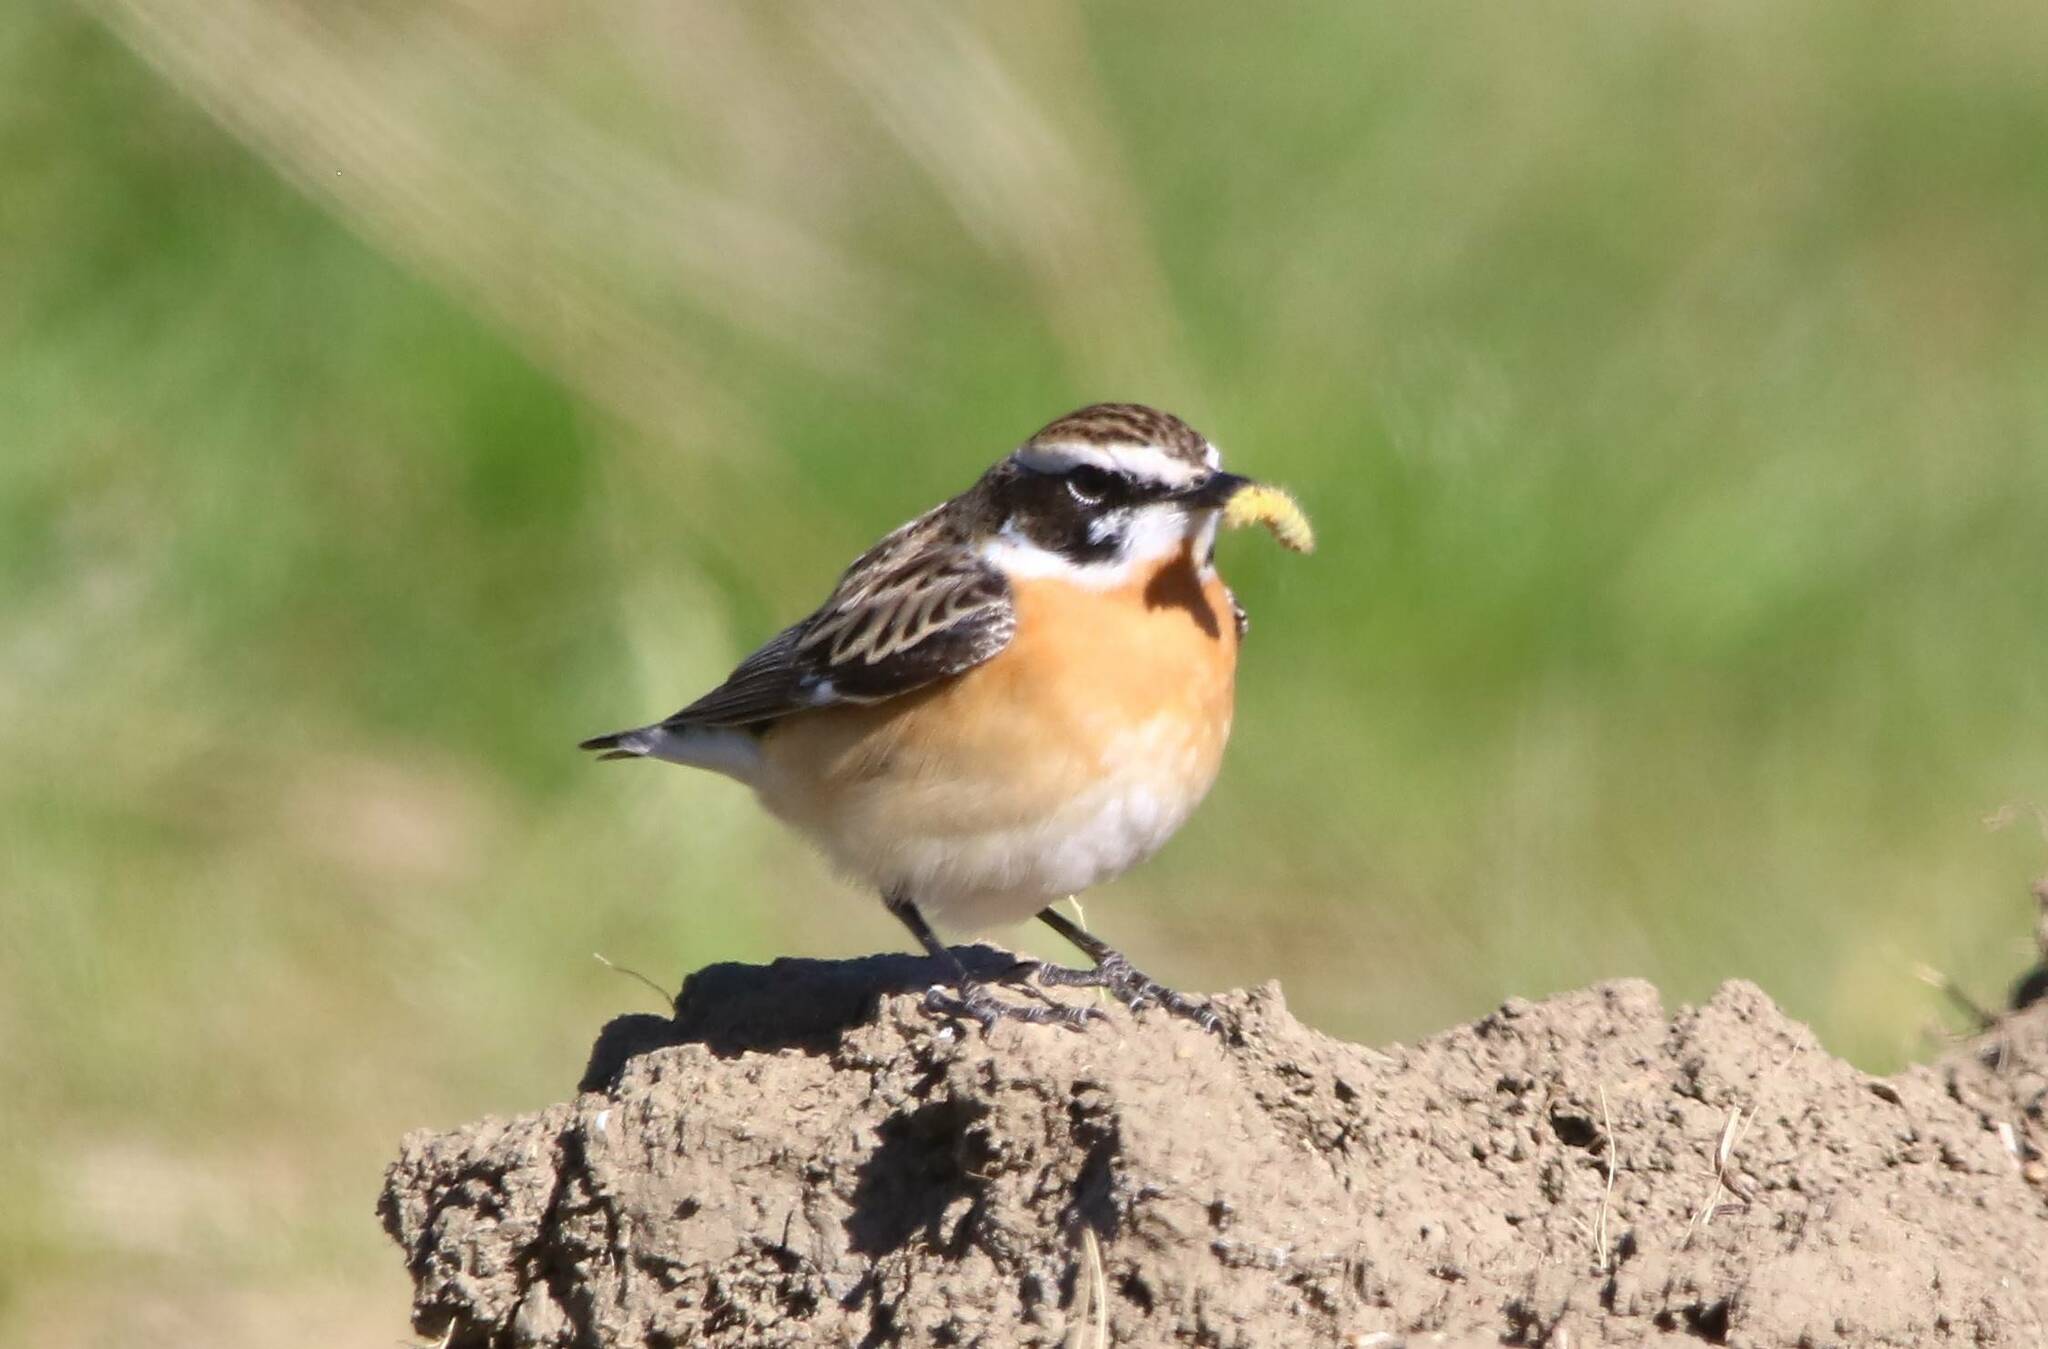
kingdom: Animalia
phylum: Chordata
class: Aves
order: Passeriformes
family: Muscicapidae
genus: Saxicola
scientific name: Saxicola rubetra
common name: Whinchat
